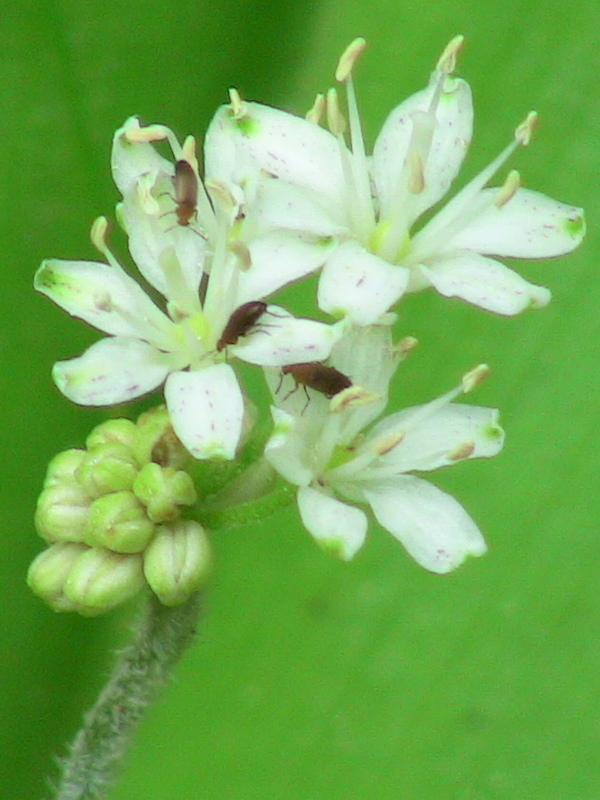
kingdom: Plantae
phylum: Tracheophyta
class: Liliopsida
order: Liliales
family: Liliaceae
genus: Clintonia
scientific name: Clintonia umbellulata
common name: Speckle wood-lily
